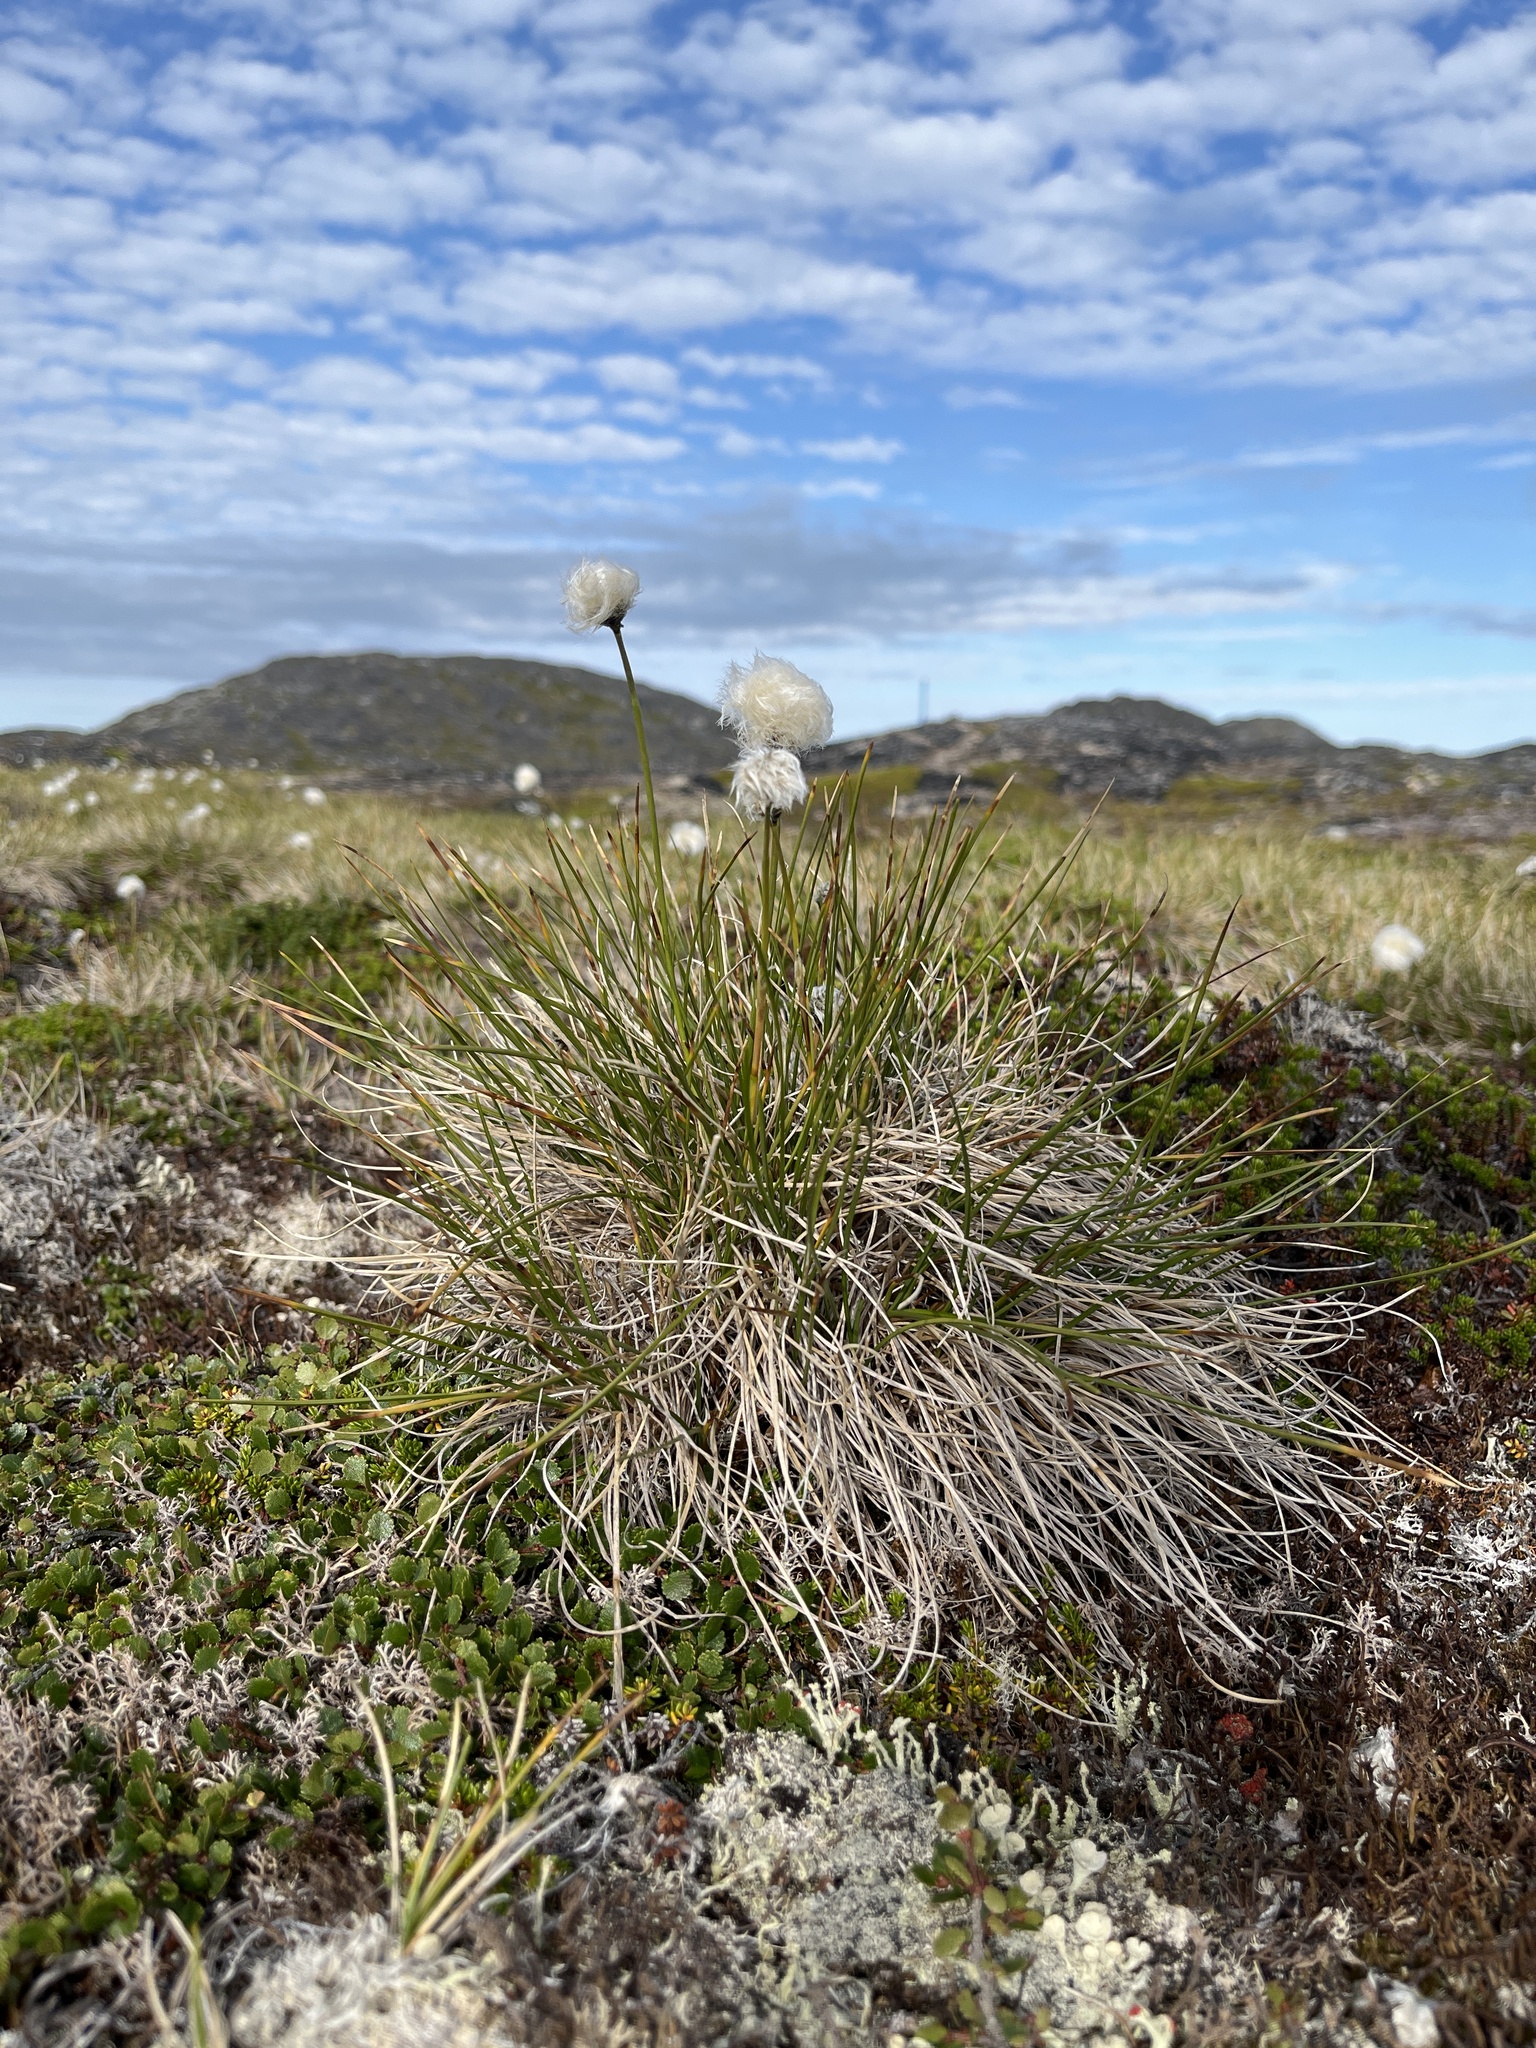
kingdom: Plantae
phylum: Tracheophyta
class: Liliopsida
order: Poales
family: Cyperaceae
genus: Eriophorum
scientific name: Eriophorum vaginatum
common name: Hare's-tail cottongrass
